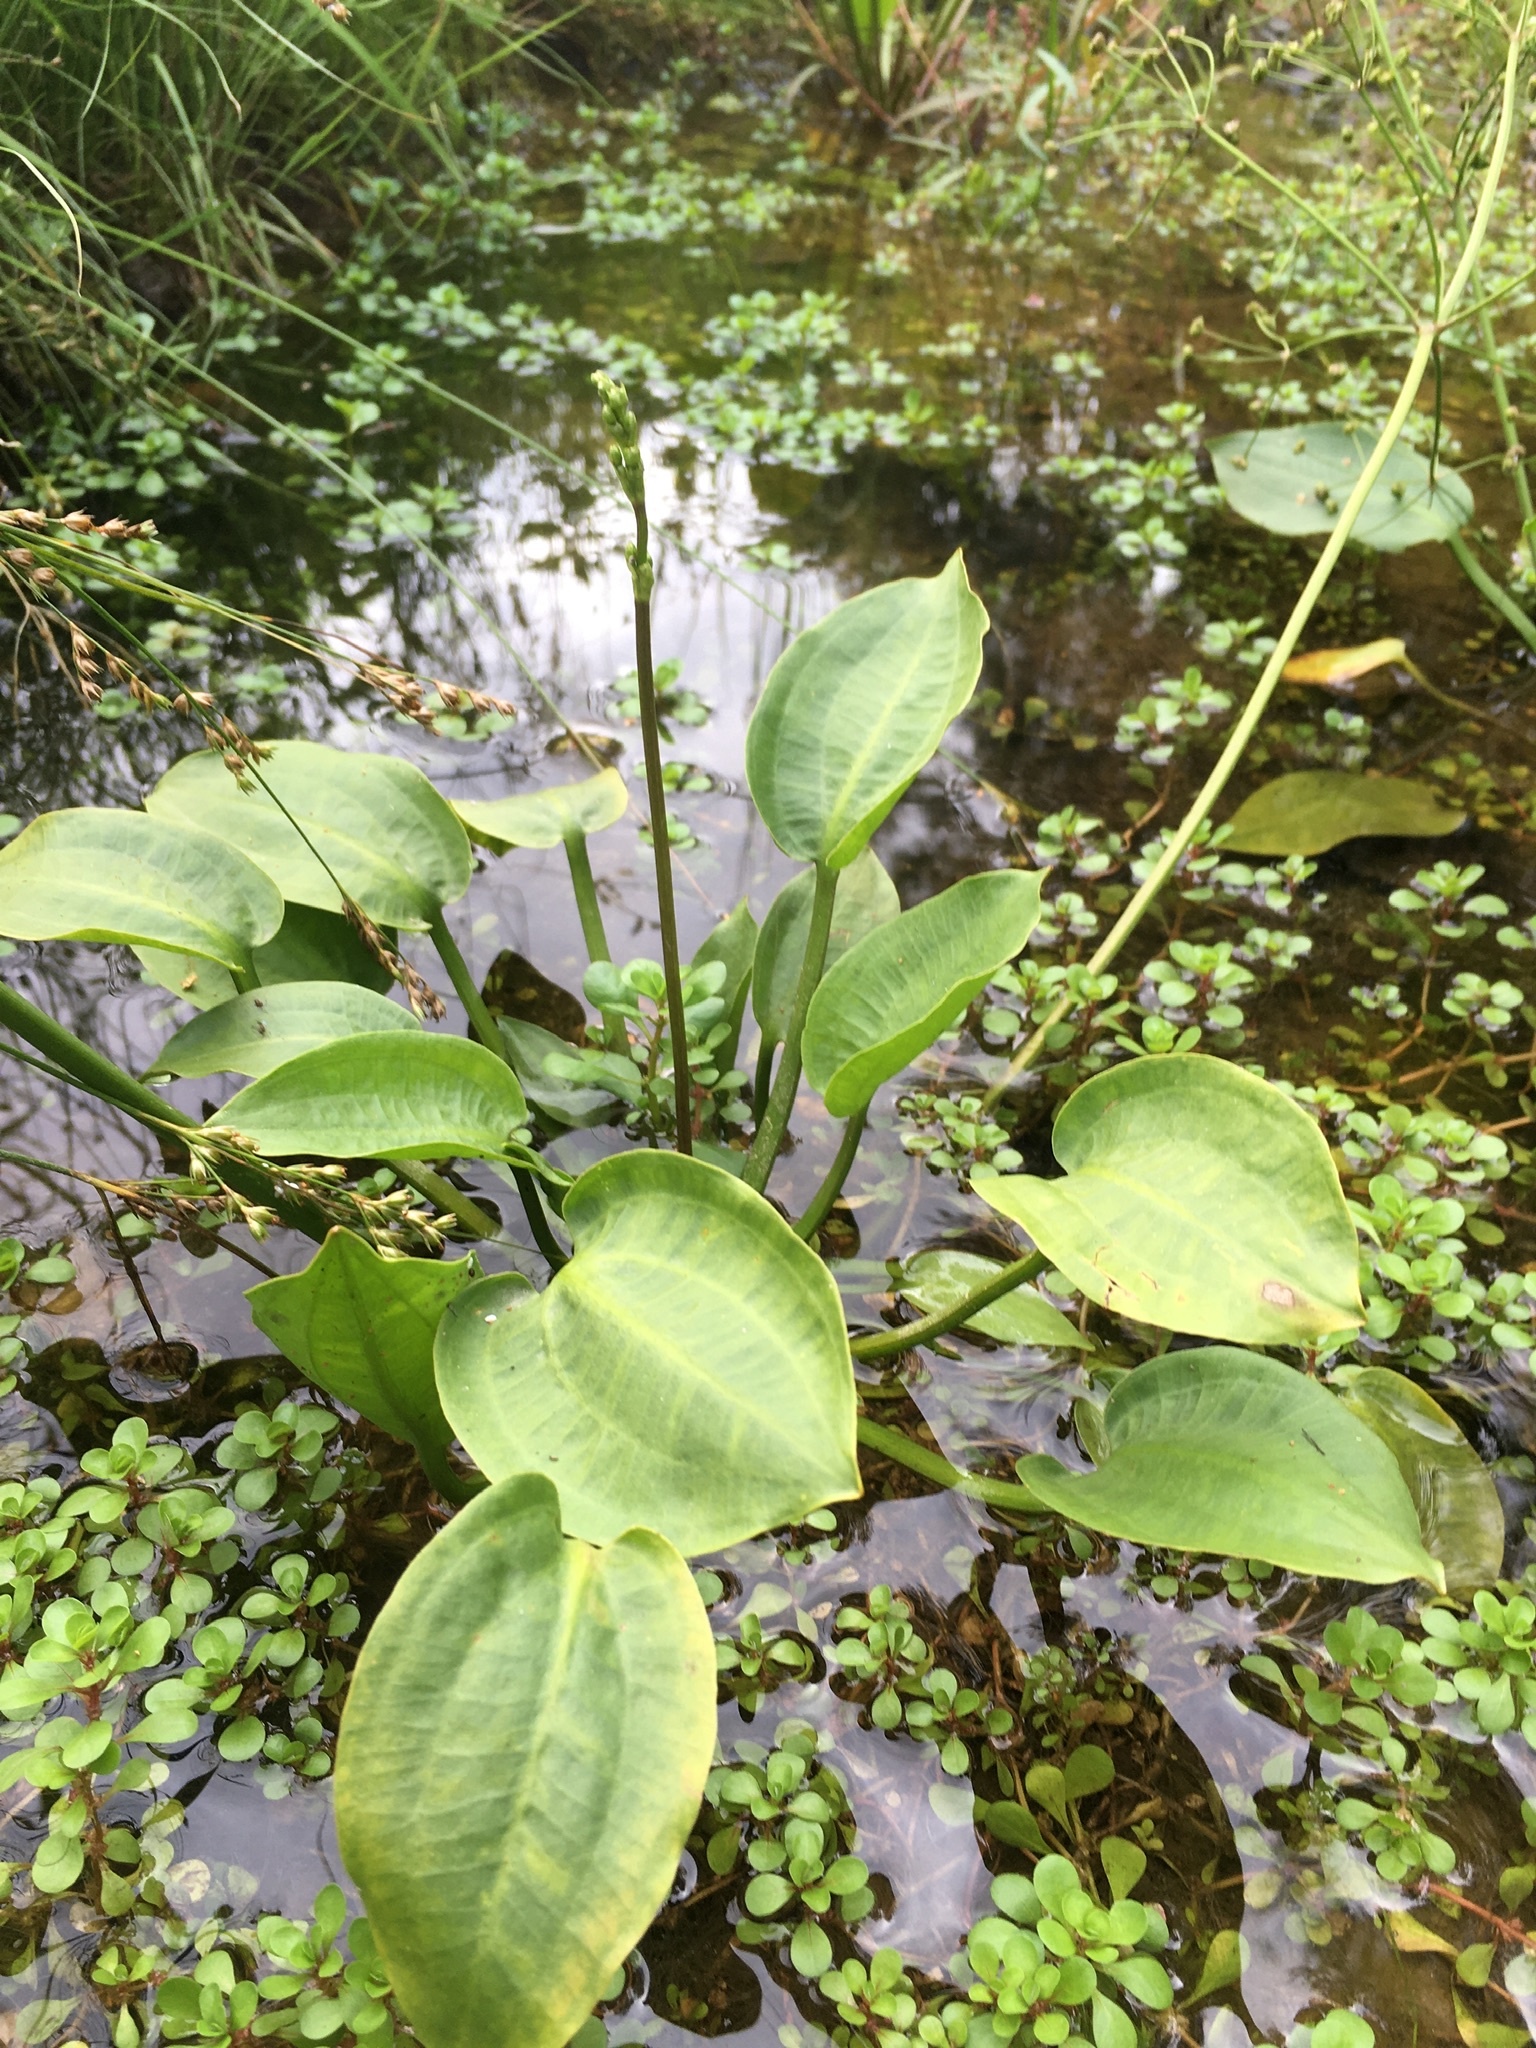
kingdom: Plantae
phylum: Tracheophyta
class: Liliopsida
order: Alismatales
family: Alismataceae
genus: Alisma
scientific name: Alisma plantago-aquatica
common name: Water-plantain
